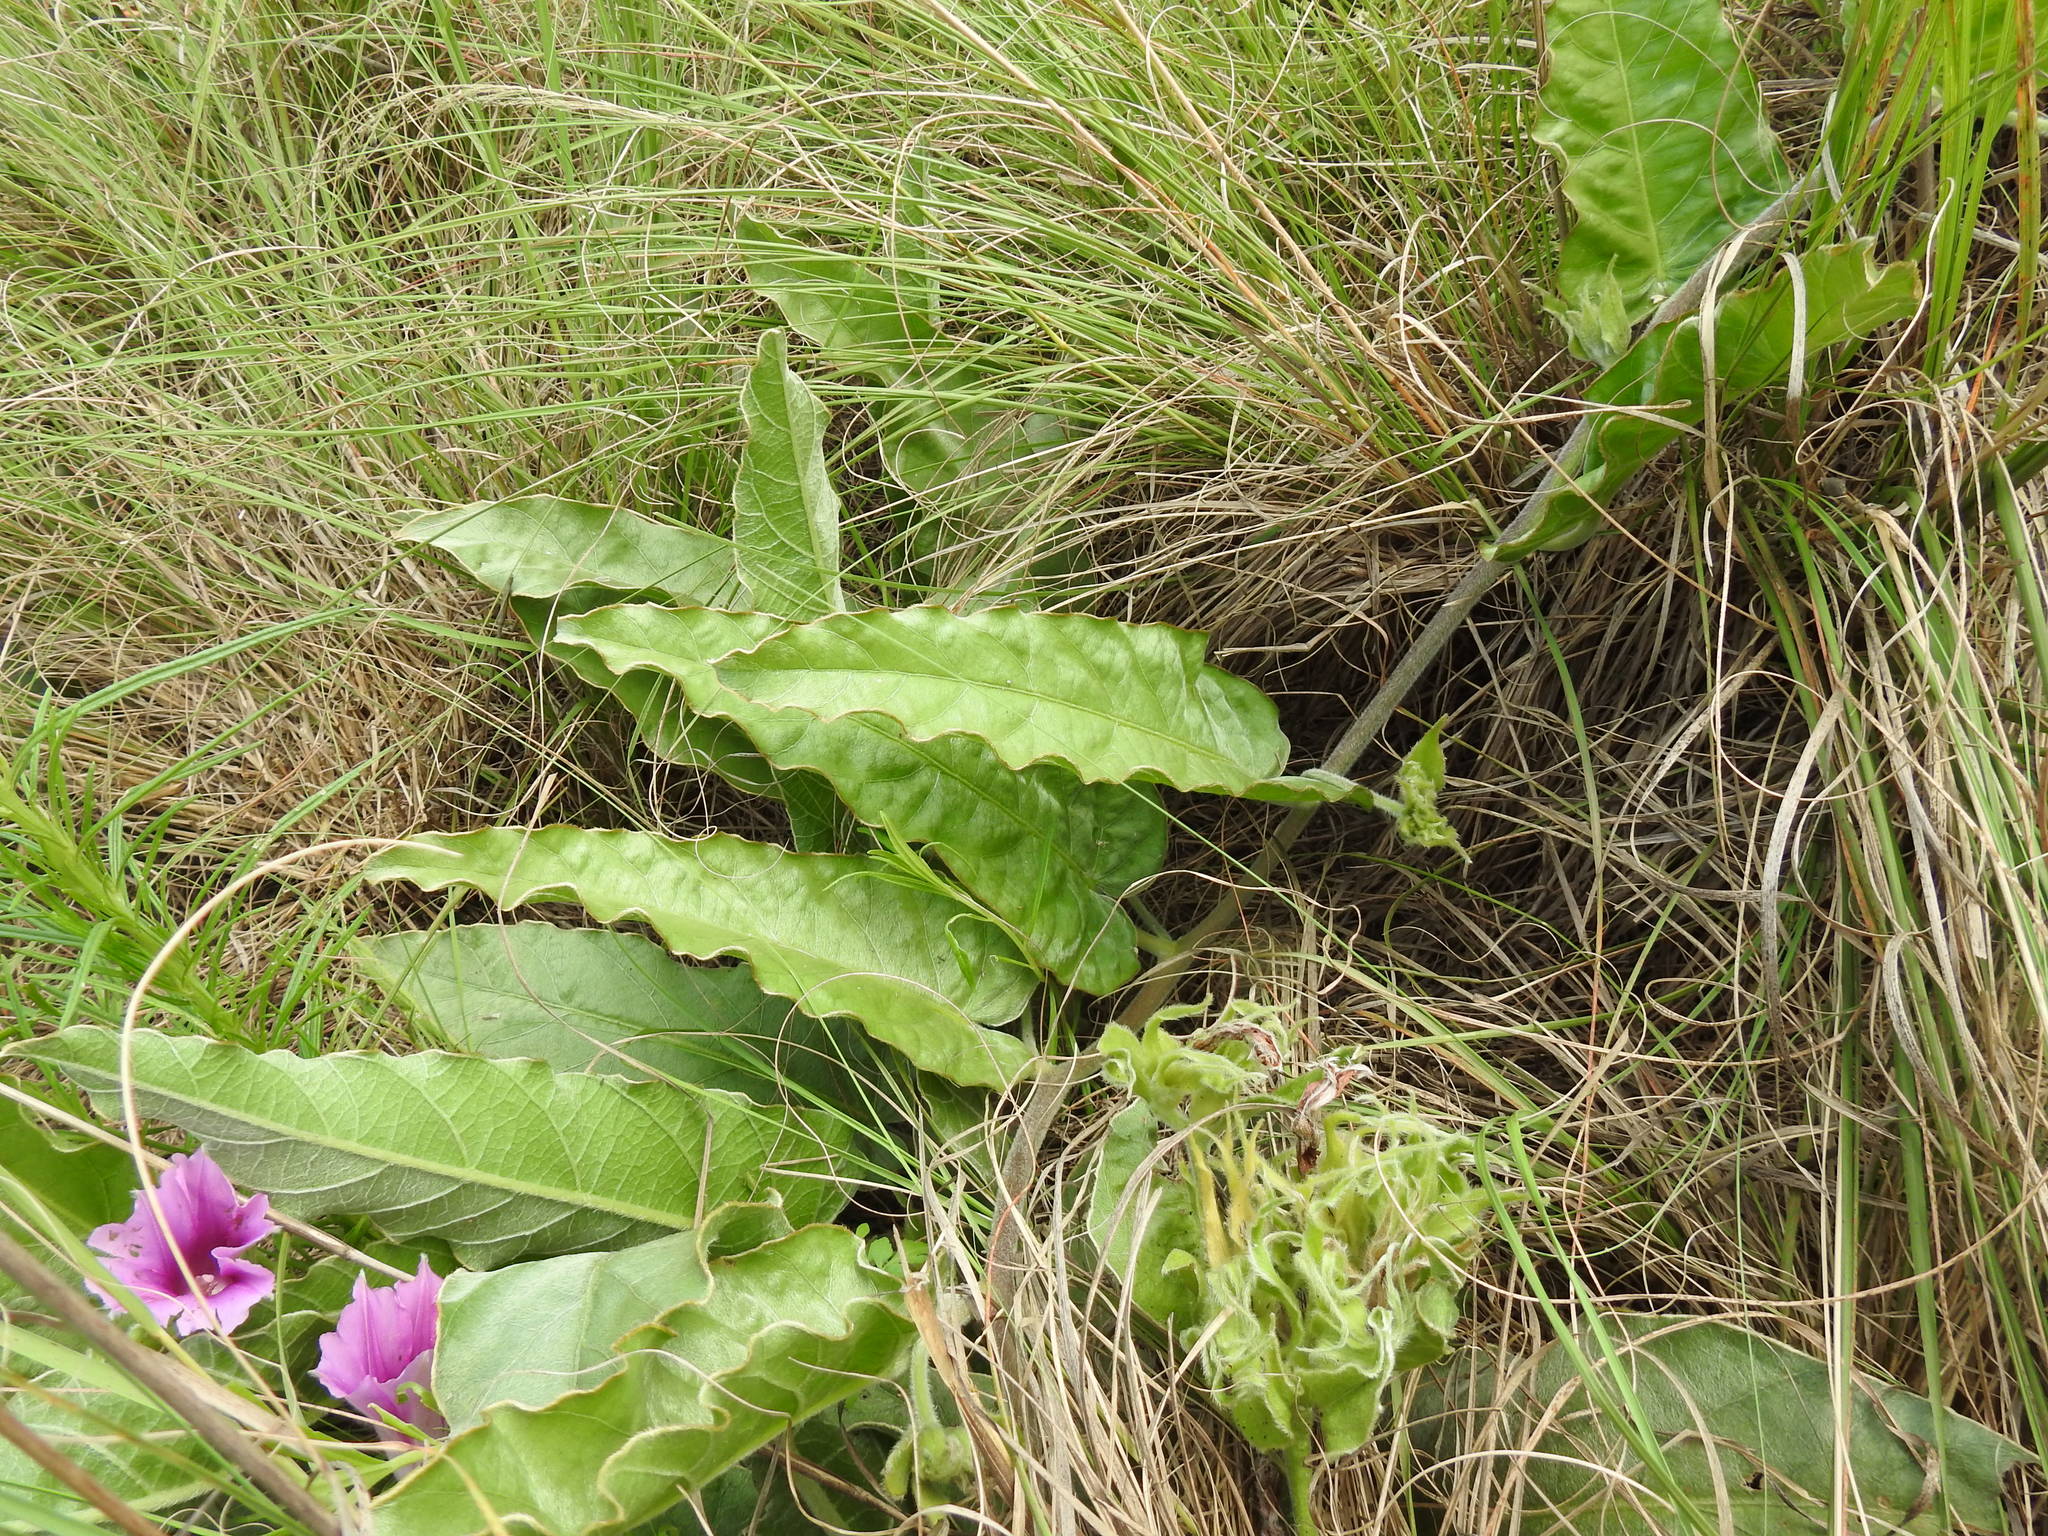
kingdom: Plantae
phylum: Tracheophyta
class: Magnoliopsida
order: Solanales
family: Convolvulaceae
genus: Ipomoea
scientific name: Ipomoea ommanneyi
